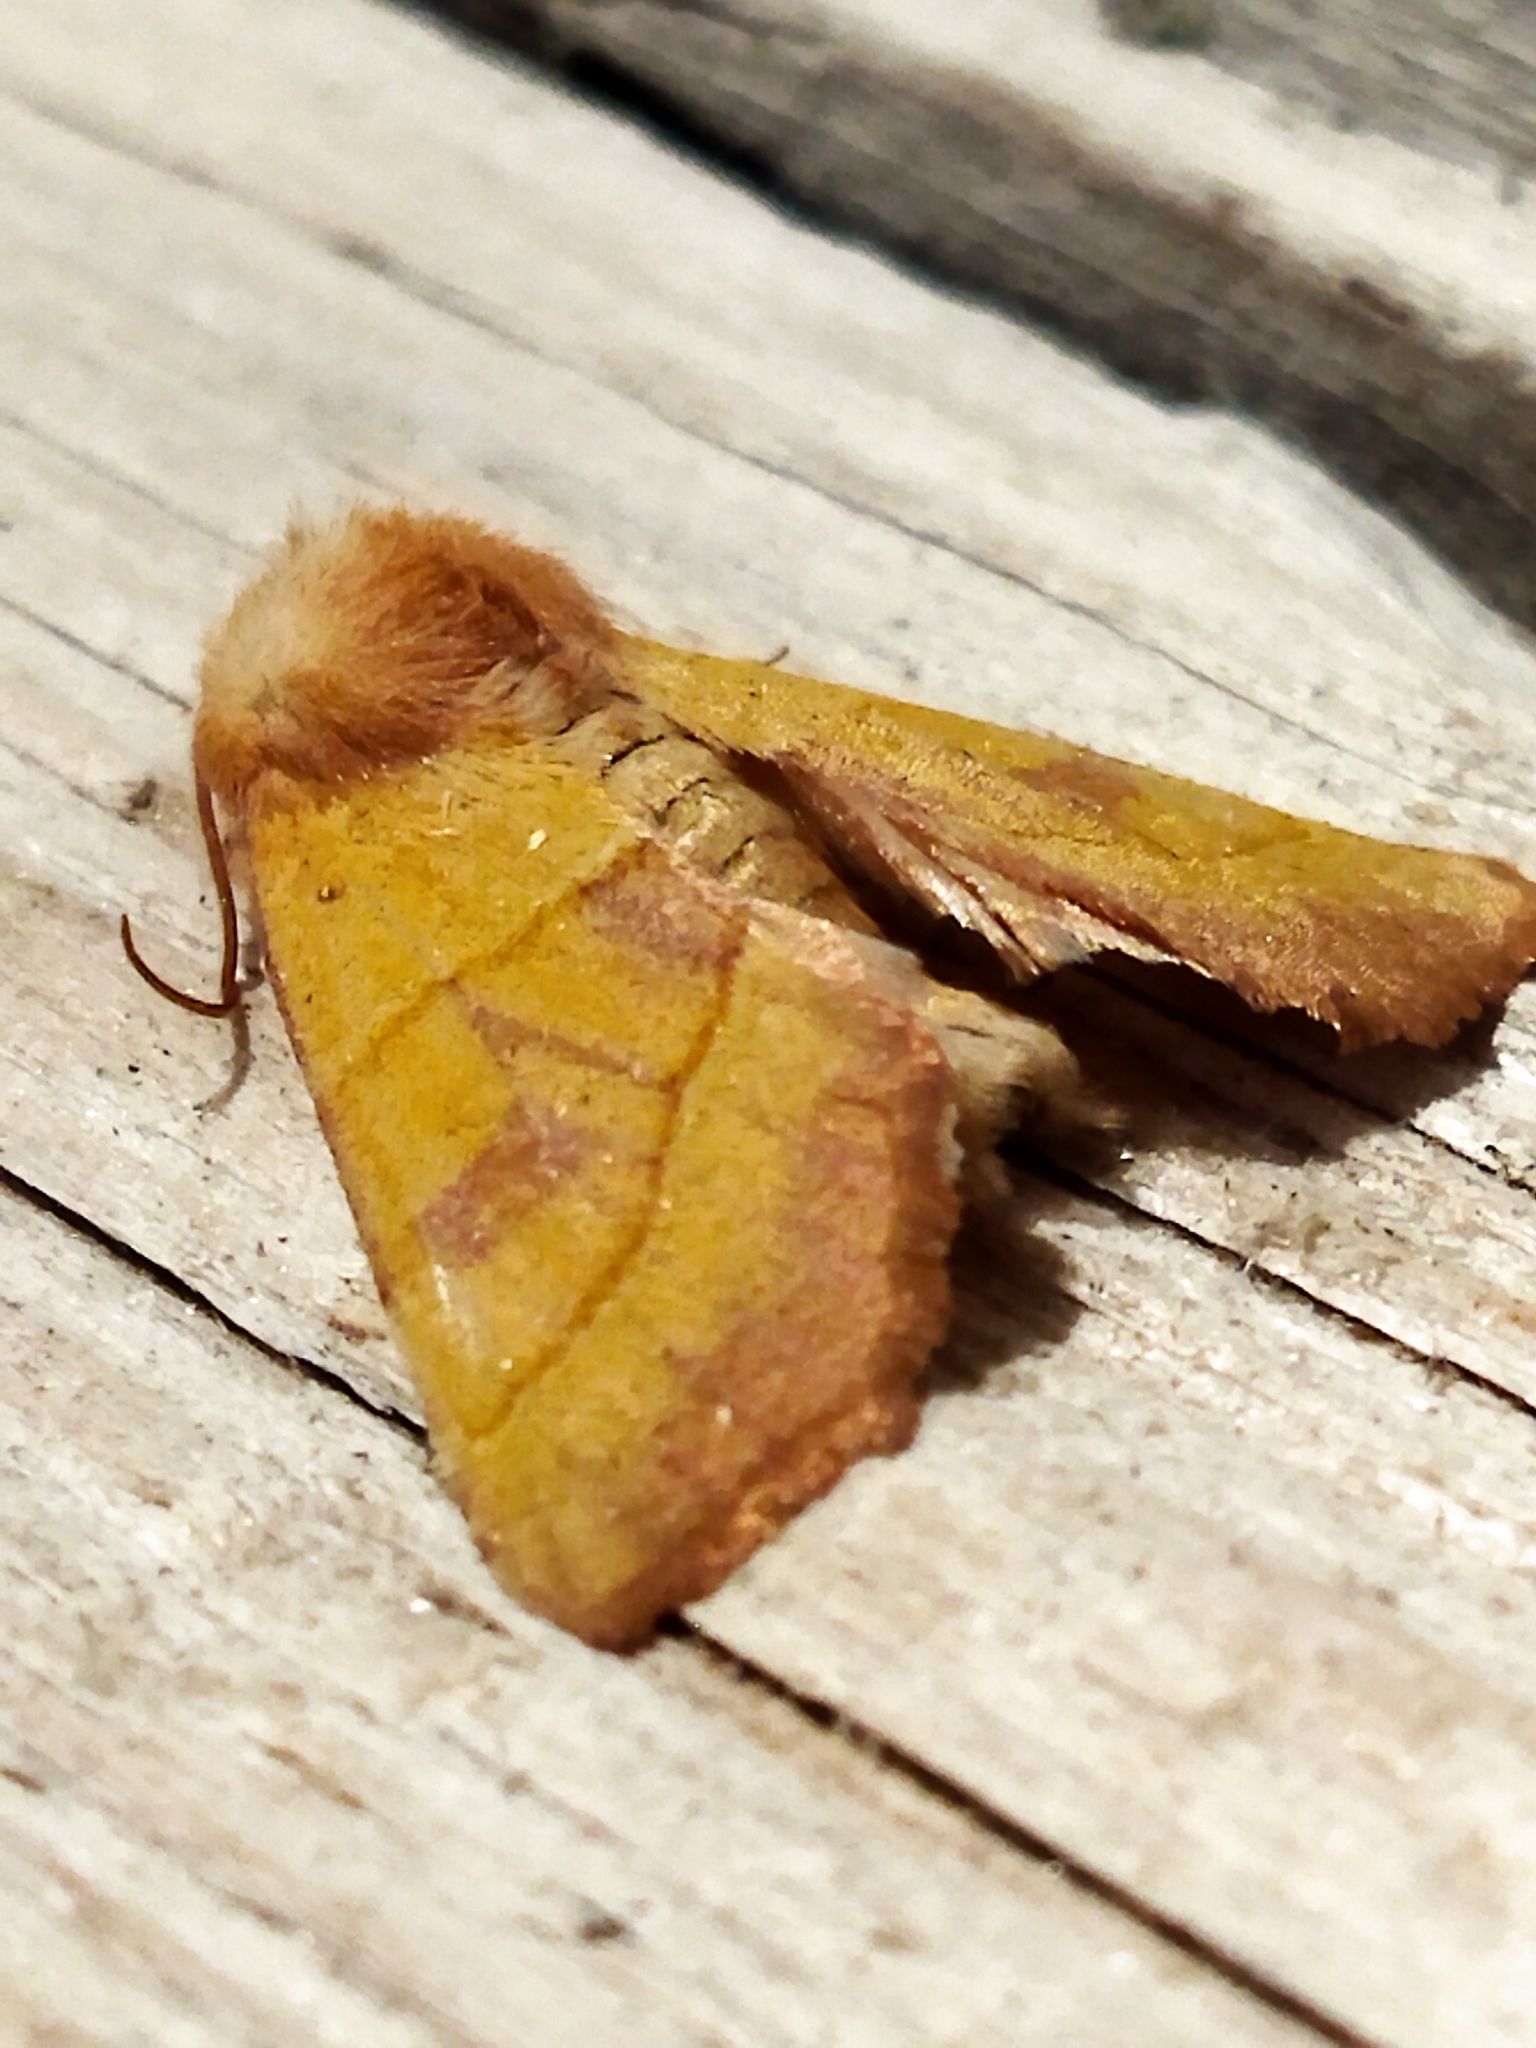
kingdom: Animalia
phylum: Arthropoda
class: Insecta
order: Lepidoptera
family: Noctuidae
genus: Atethmia
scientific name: Atethmia centrago
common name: Centre-barred sallow
